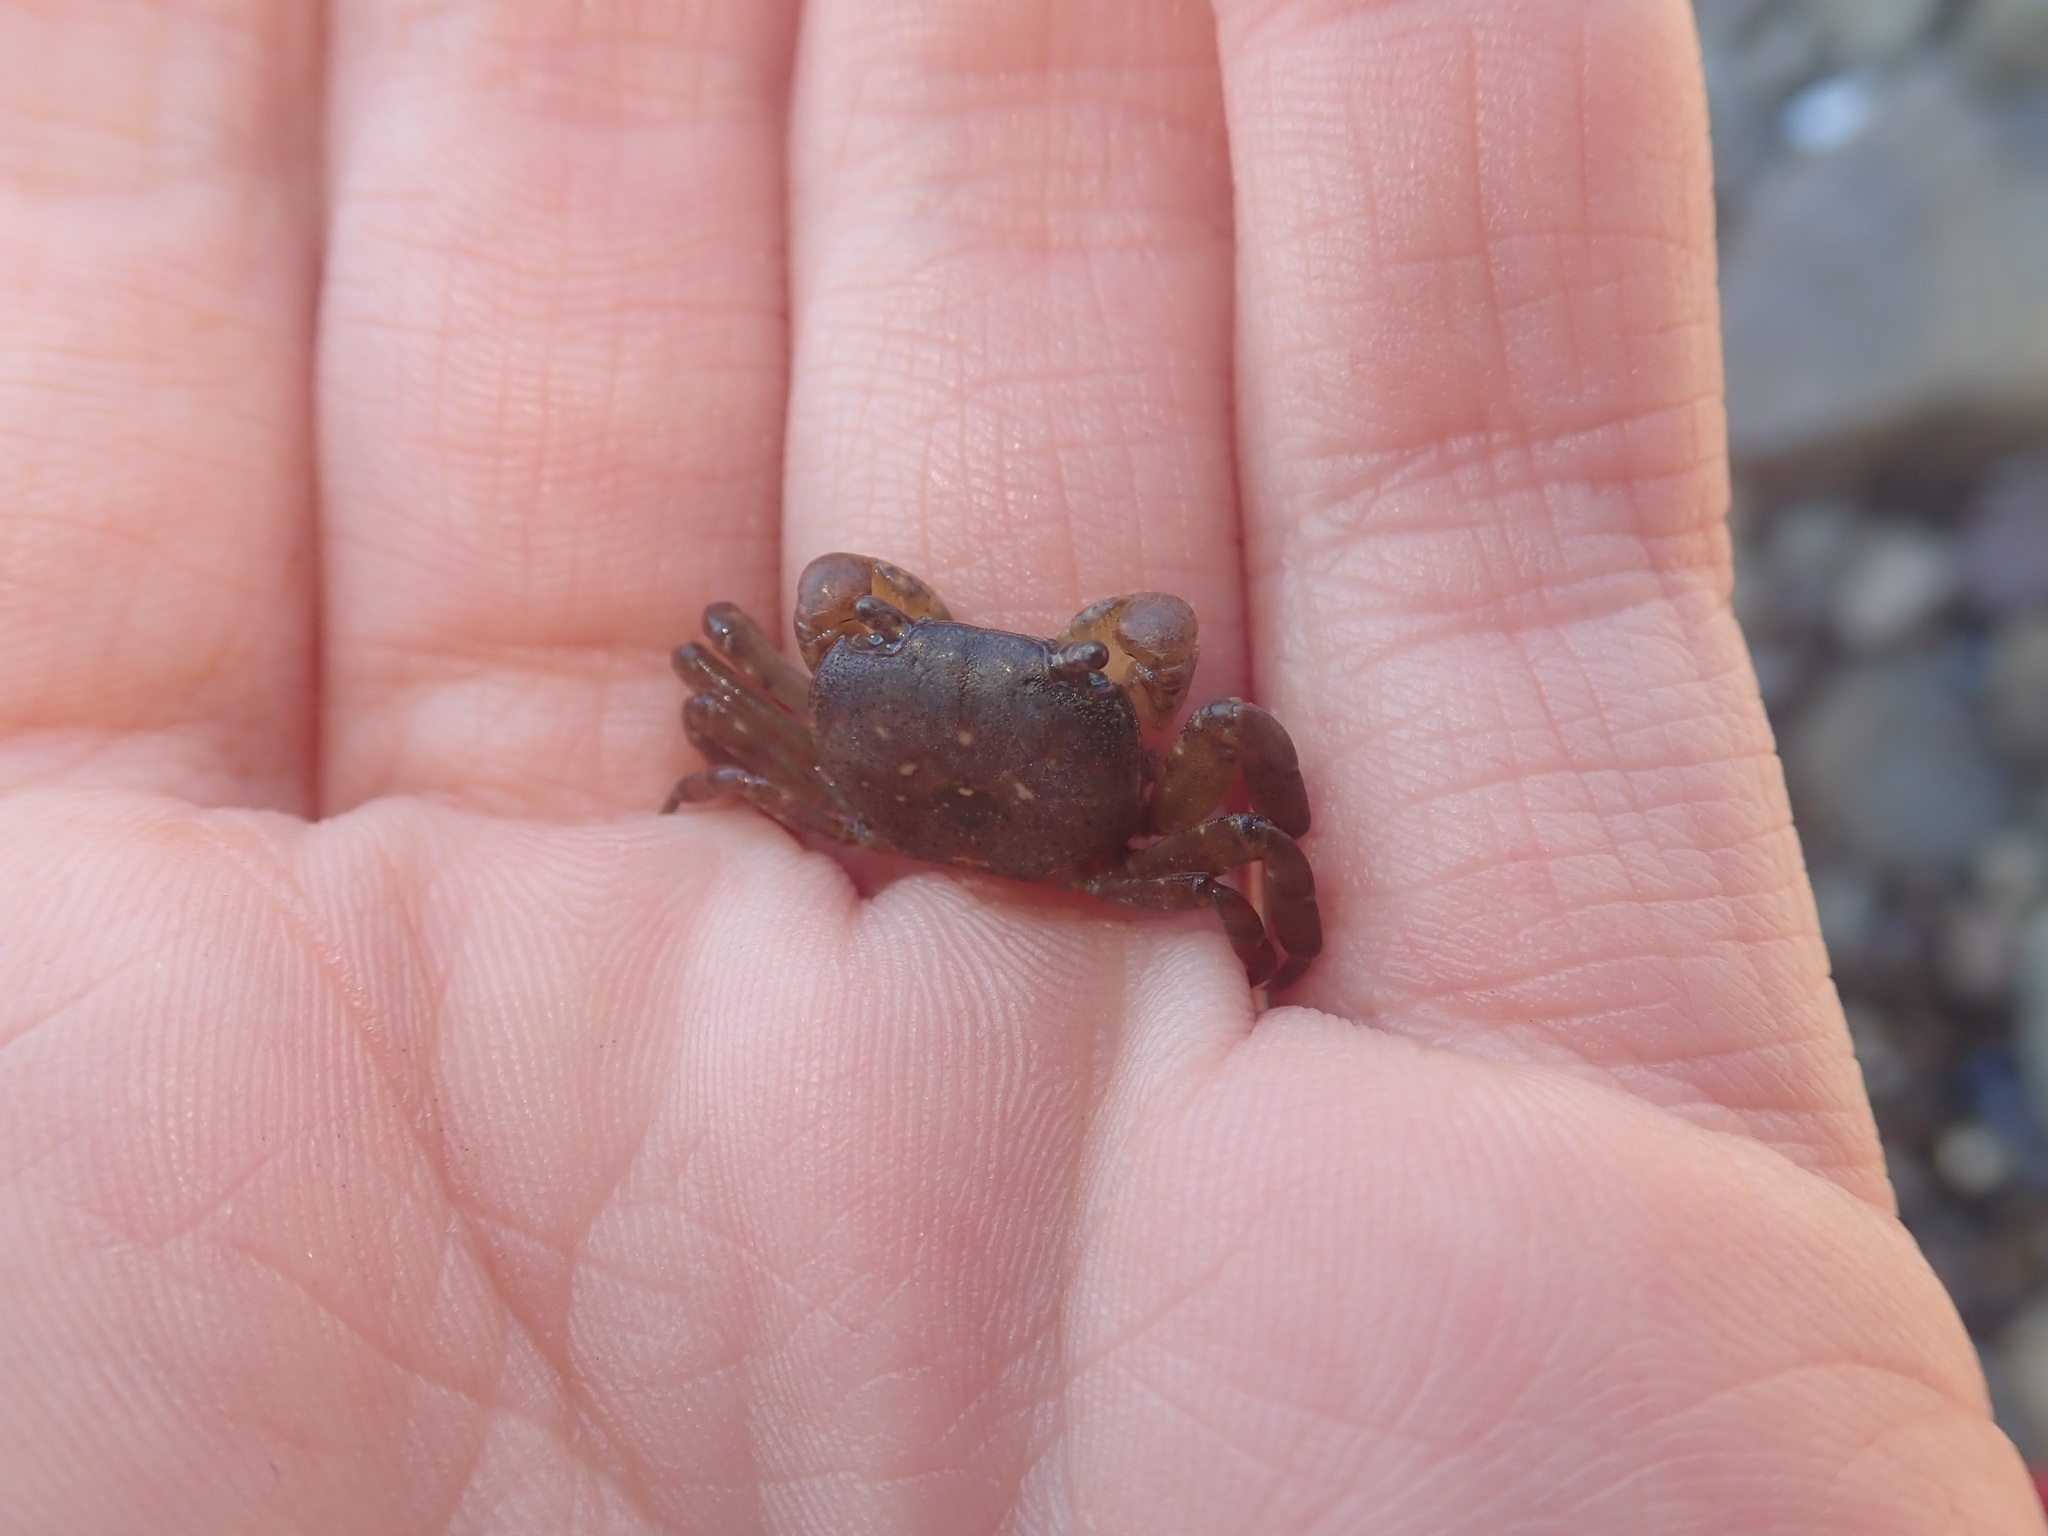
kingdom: Animalia
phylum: Arthropoda
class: Malacostraca
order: Decapoda
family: Varunidae
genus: Cyclograpsus
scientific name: Cyclograpsus lavauxi
